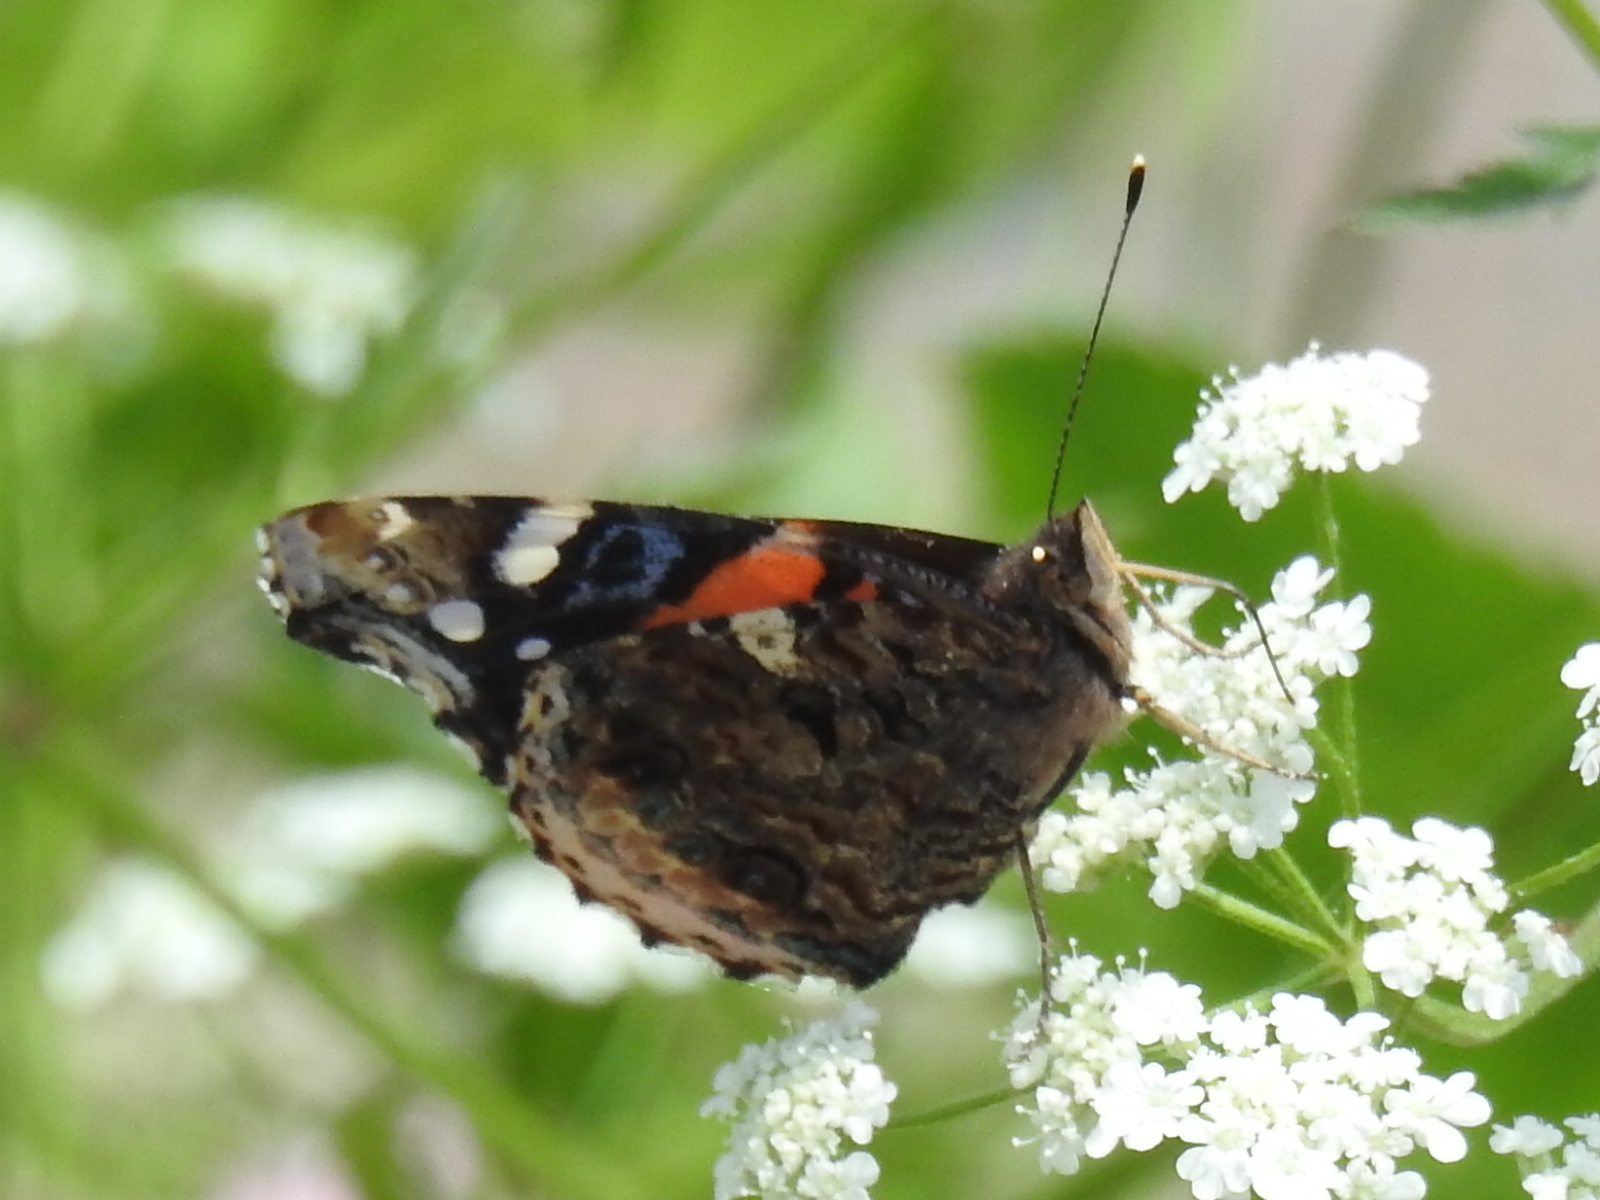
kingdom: Animalia
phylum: Arthropoda
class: Insecta
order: Lepidoptera
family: Nymphalidae
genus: Vanessa
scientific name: Vanessa atalanta
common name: Red admiral
